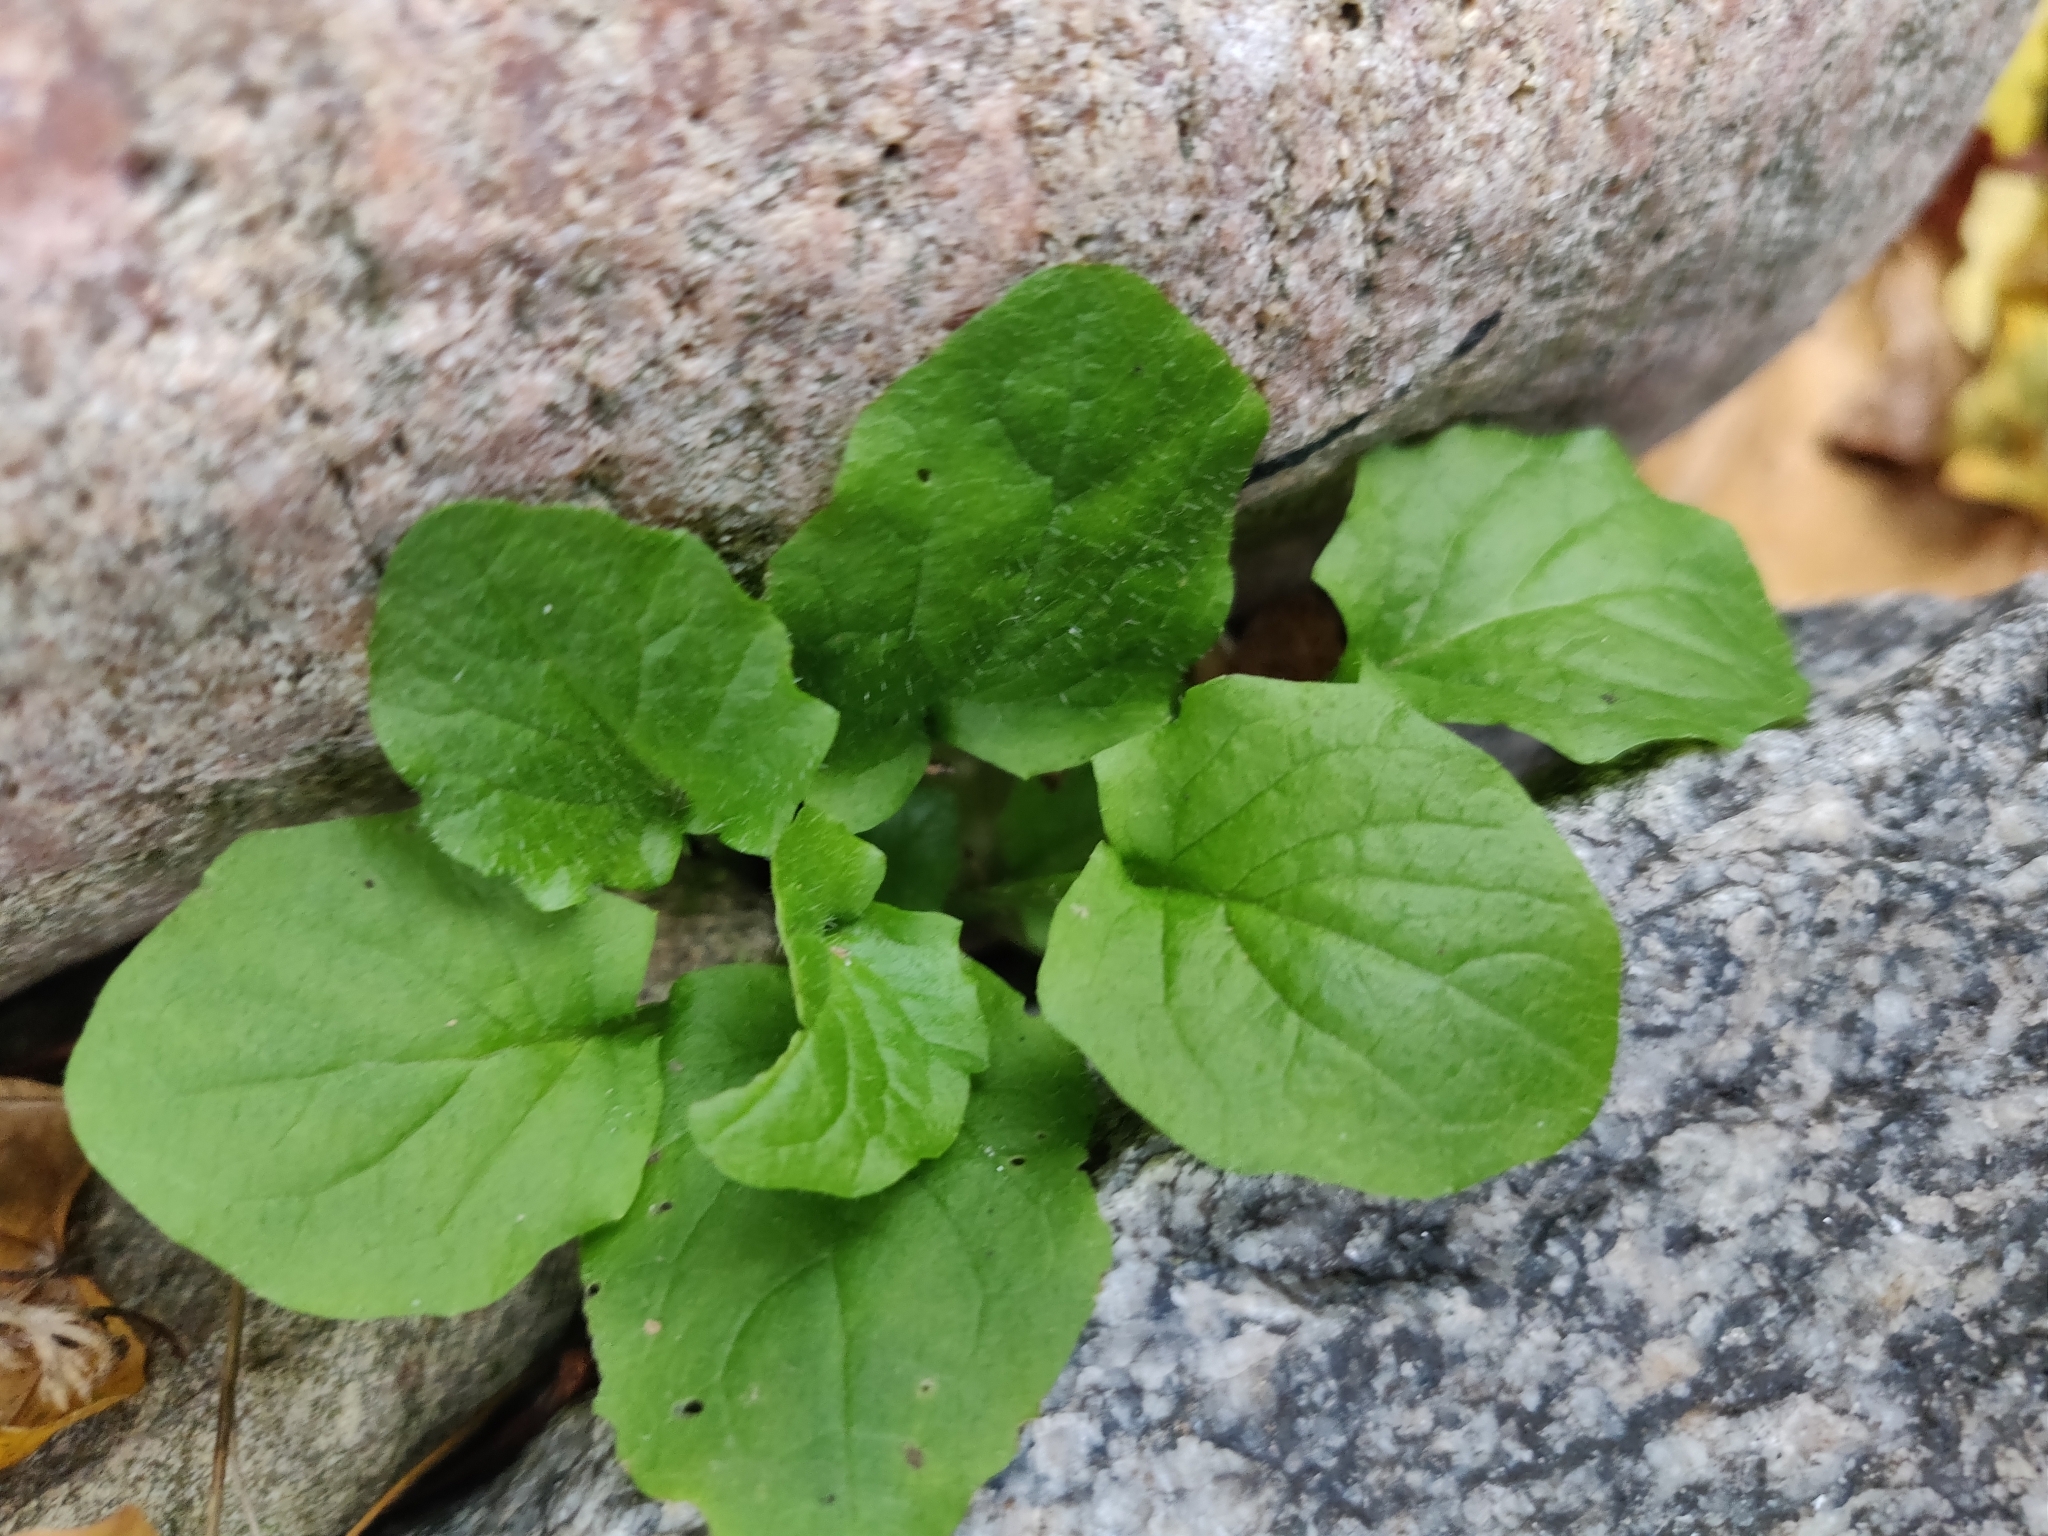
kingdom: Plantae
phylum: Tracheophyta
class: Magnoliopsida
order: Asterales
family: Asteraceae
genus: Lapsana
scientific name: Lapsana communis
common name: Nipplewort
